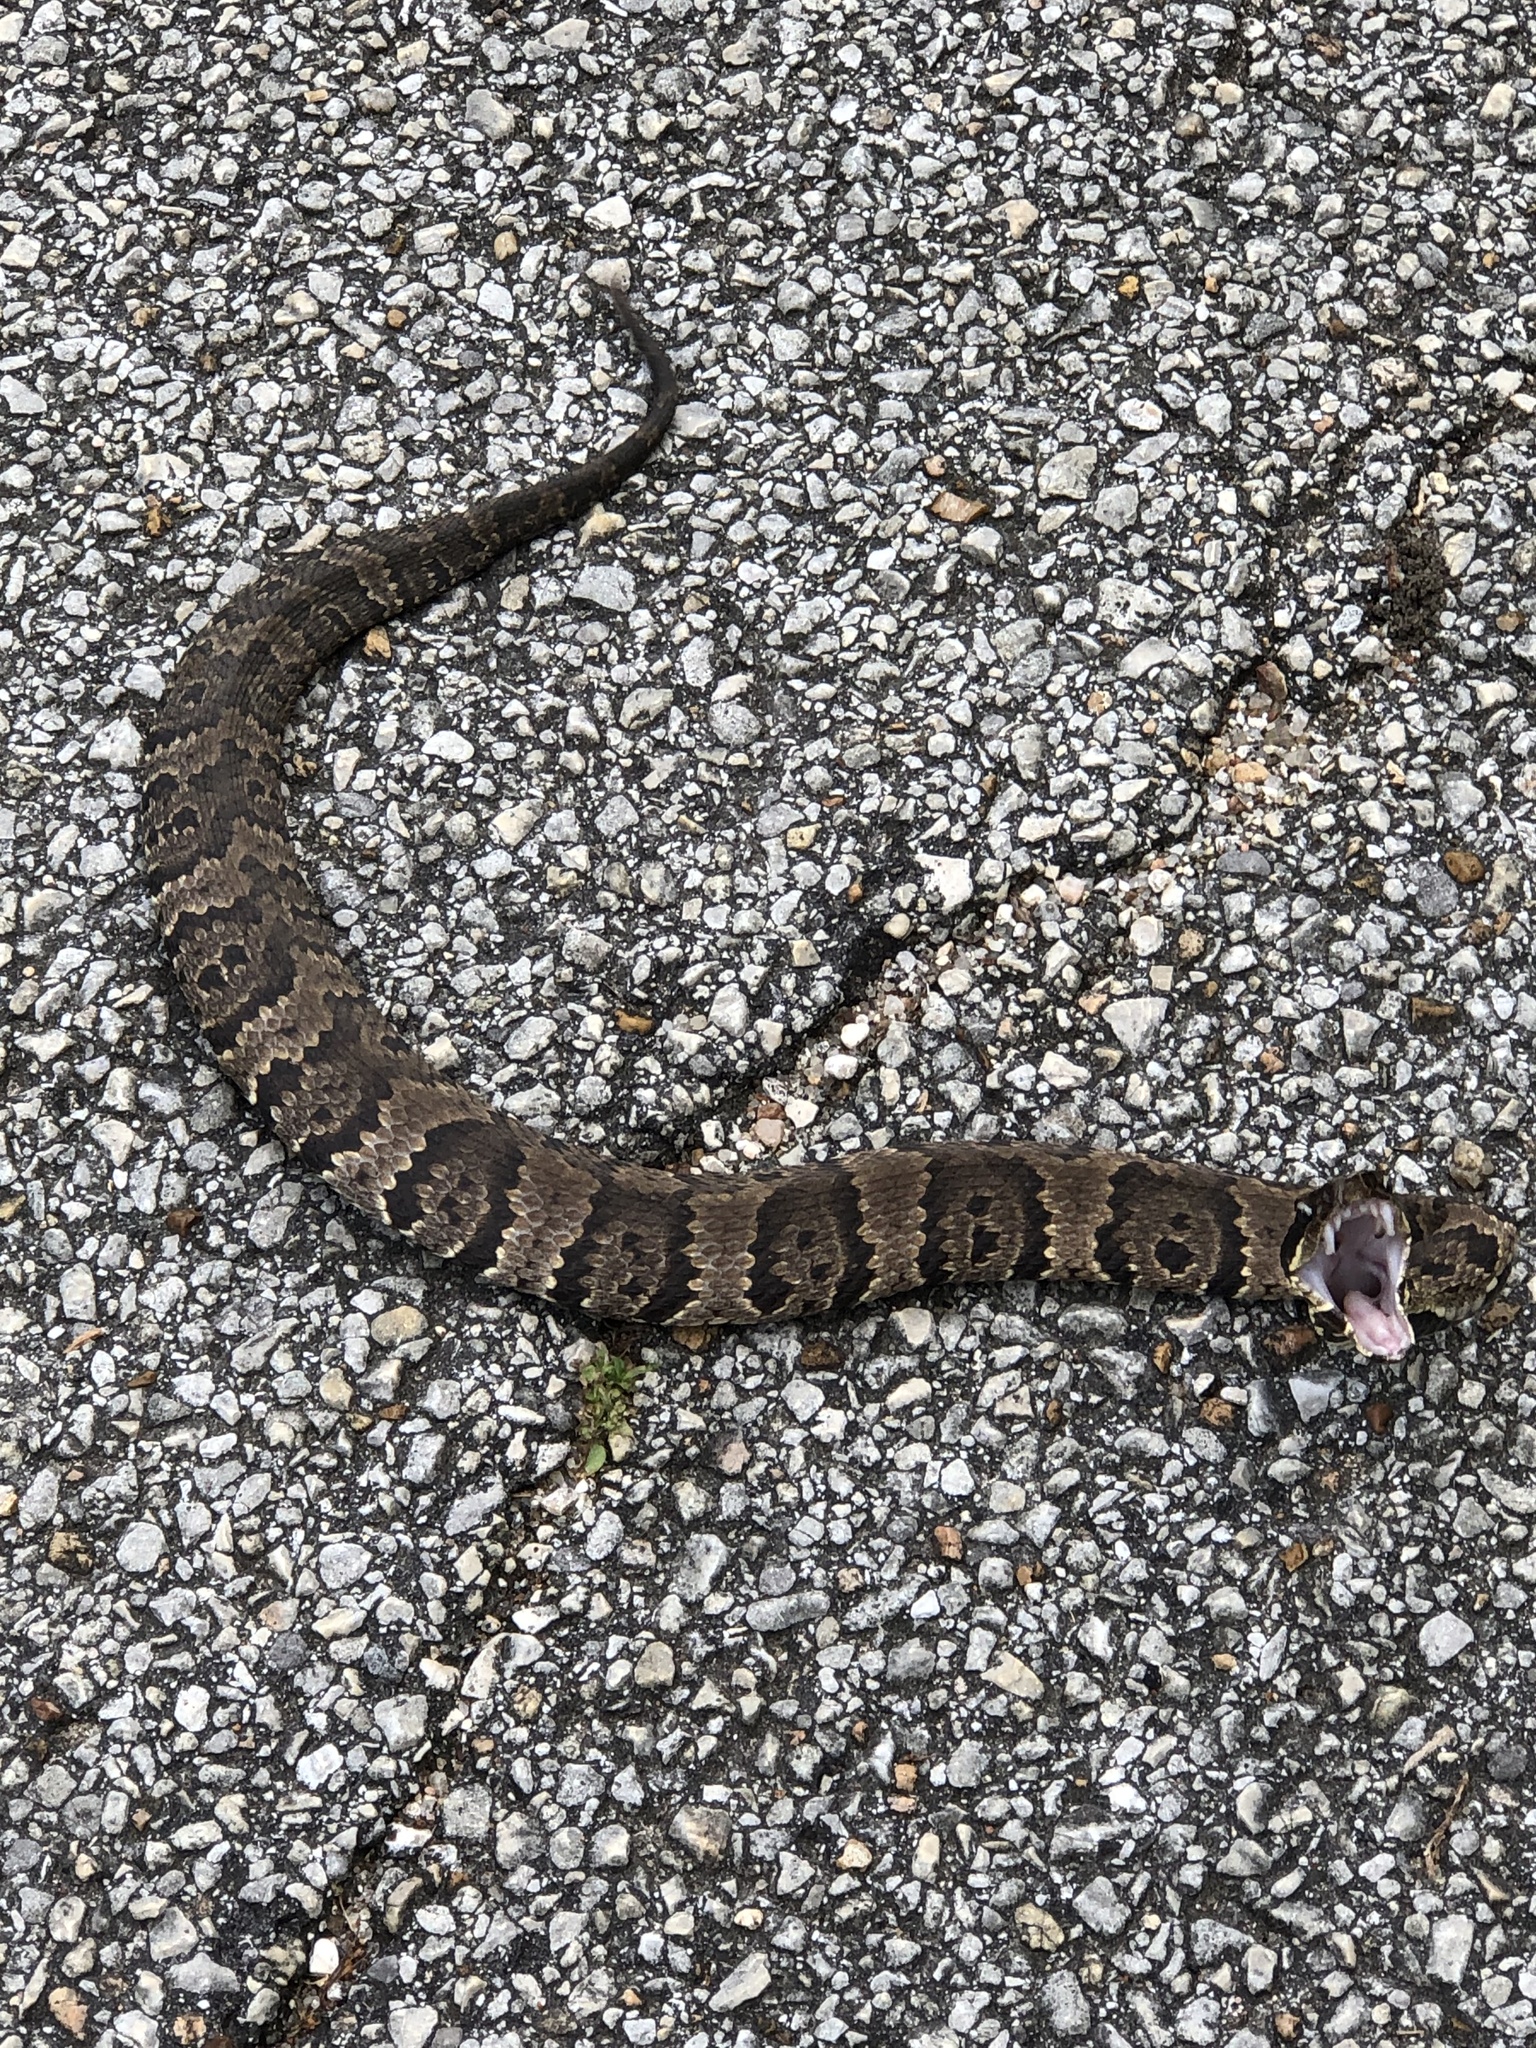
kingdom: Animalia
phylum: Chordata
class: Squamata
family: Viperidae
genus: Agkistrodon
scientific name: Agkistrodon piscivorus
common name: Cottonmouth
